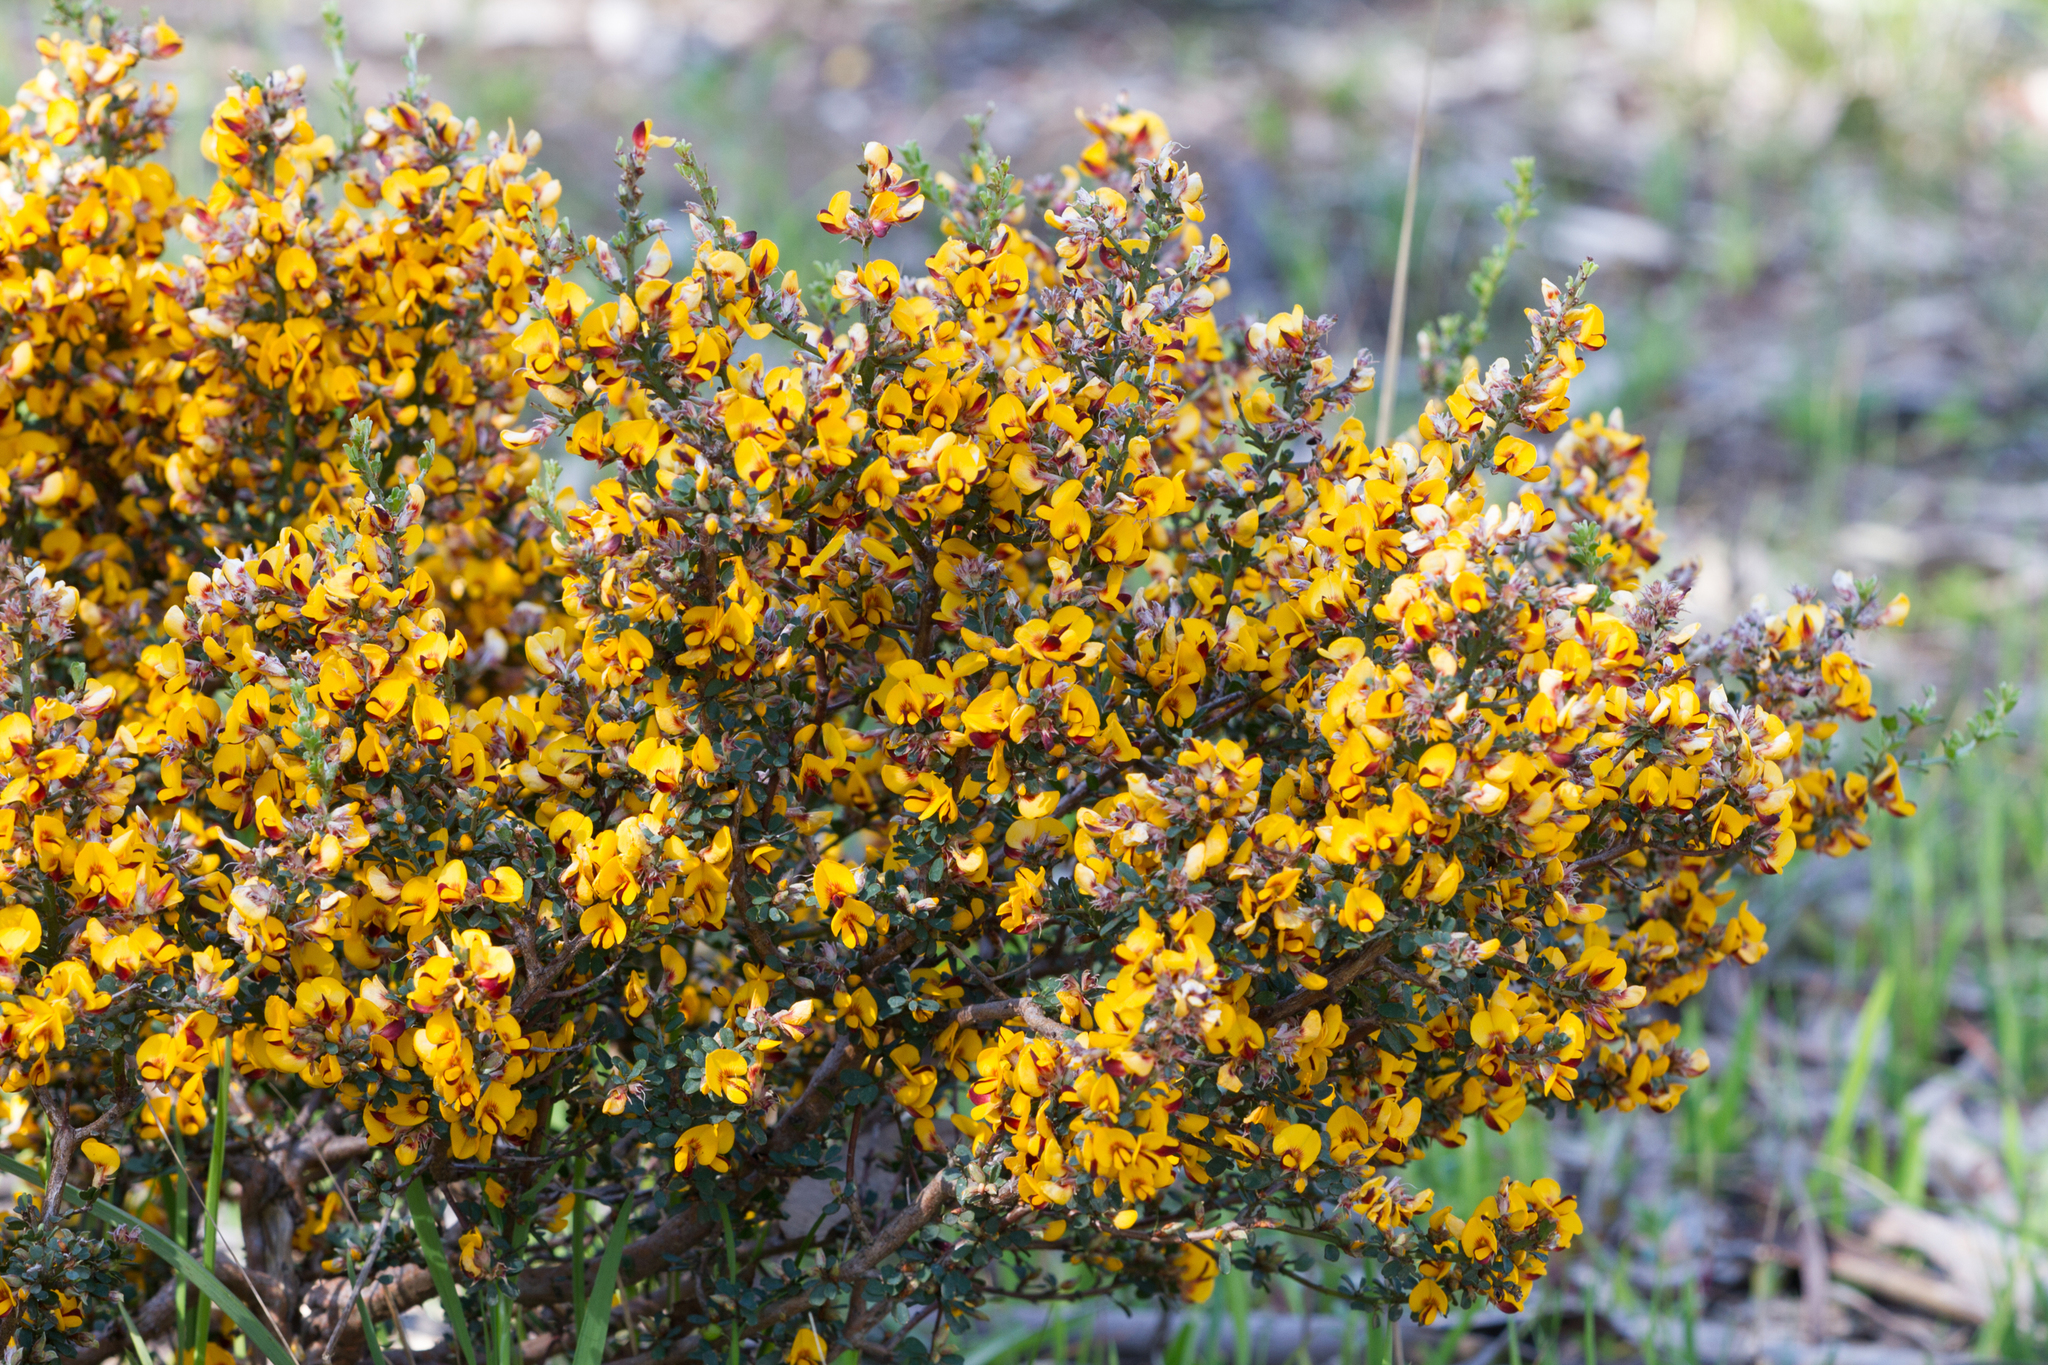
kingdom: Plantae
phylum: Tracheophyta
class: Magnoliopsida
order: Fabales
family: Fabaceae
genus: Pultenaea
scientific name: Pultenaea largiflorens
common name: Twiggy bush-pea
